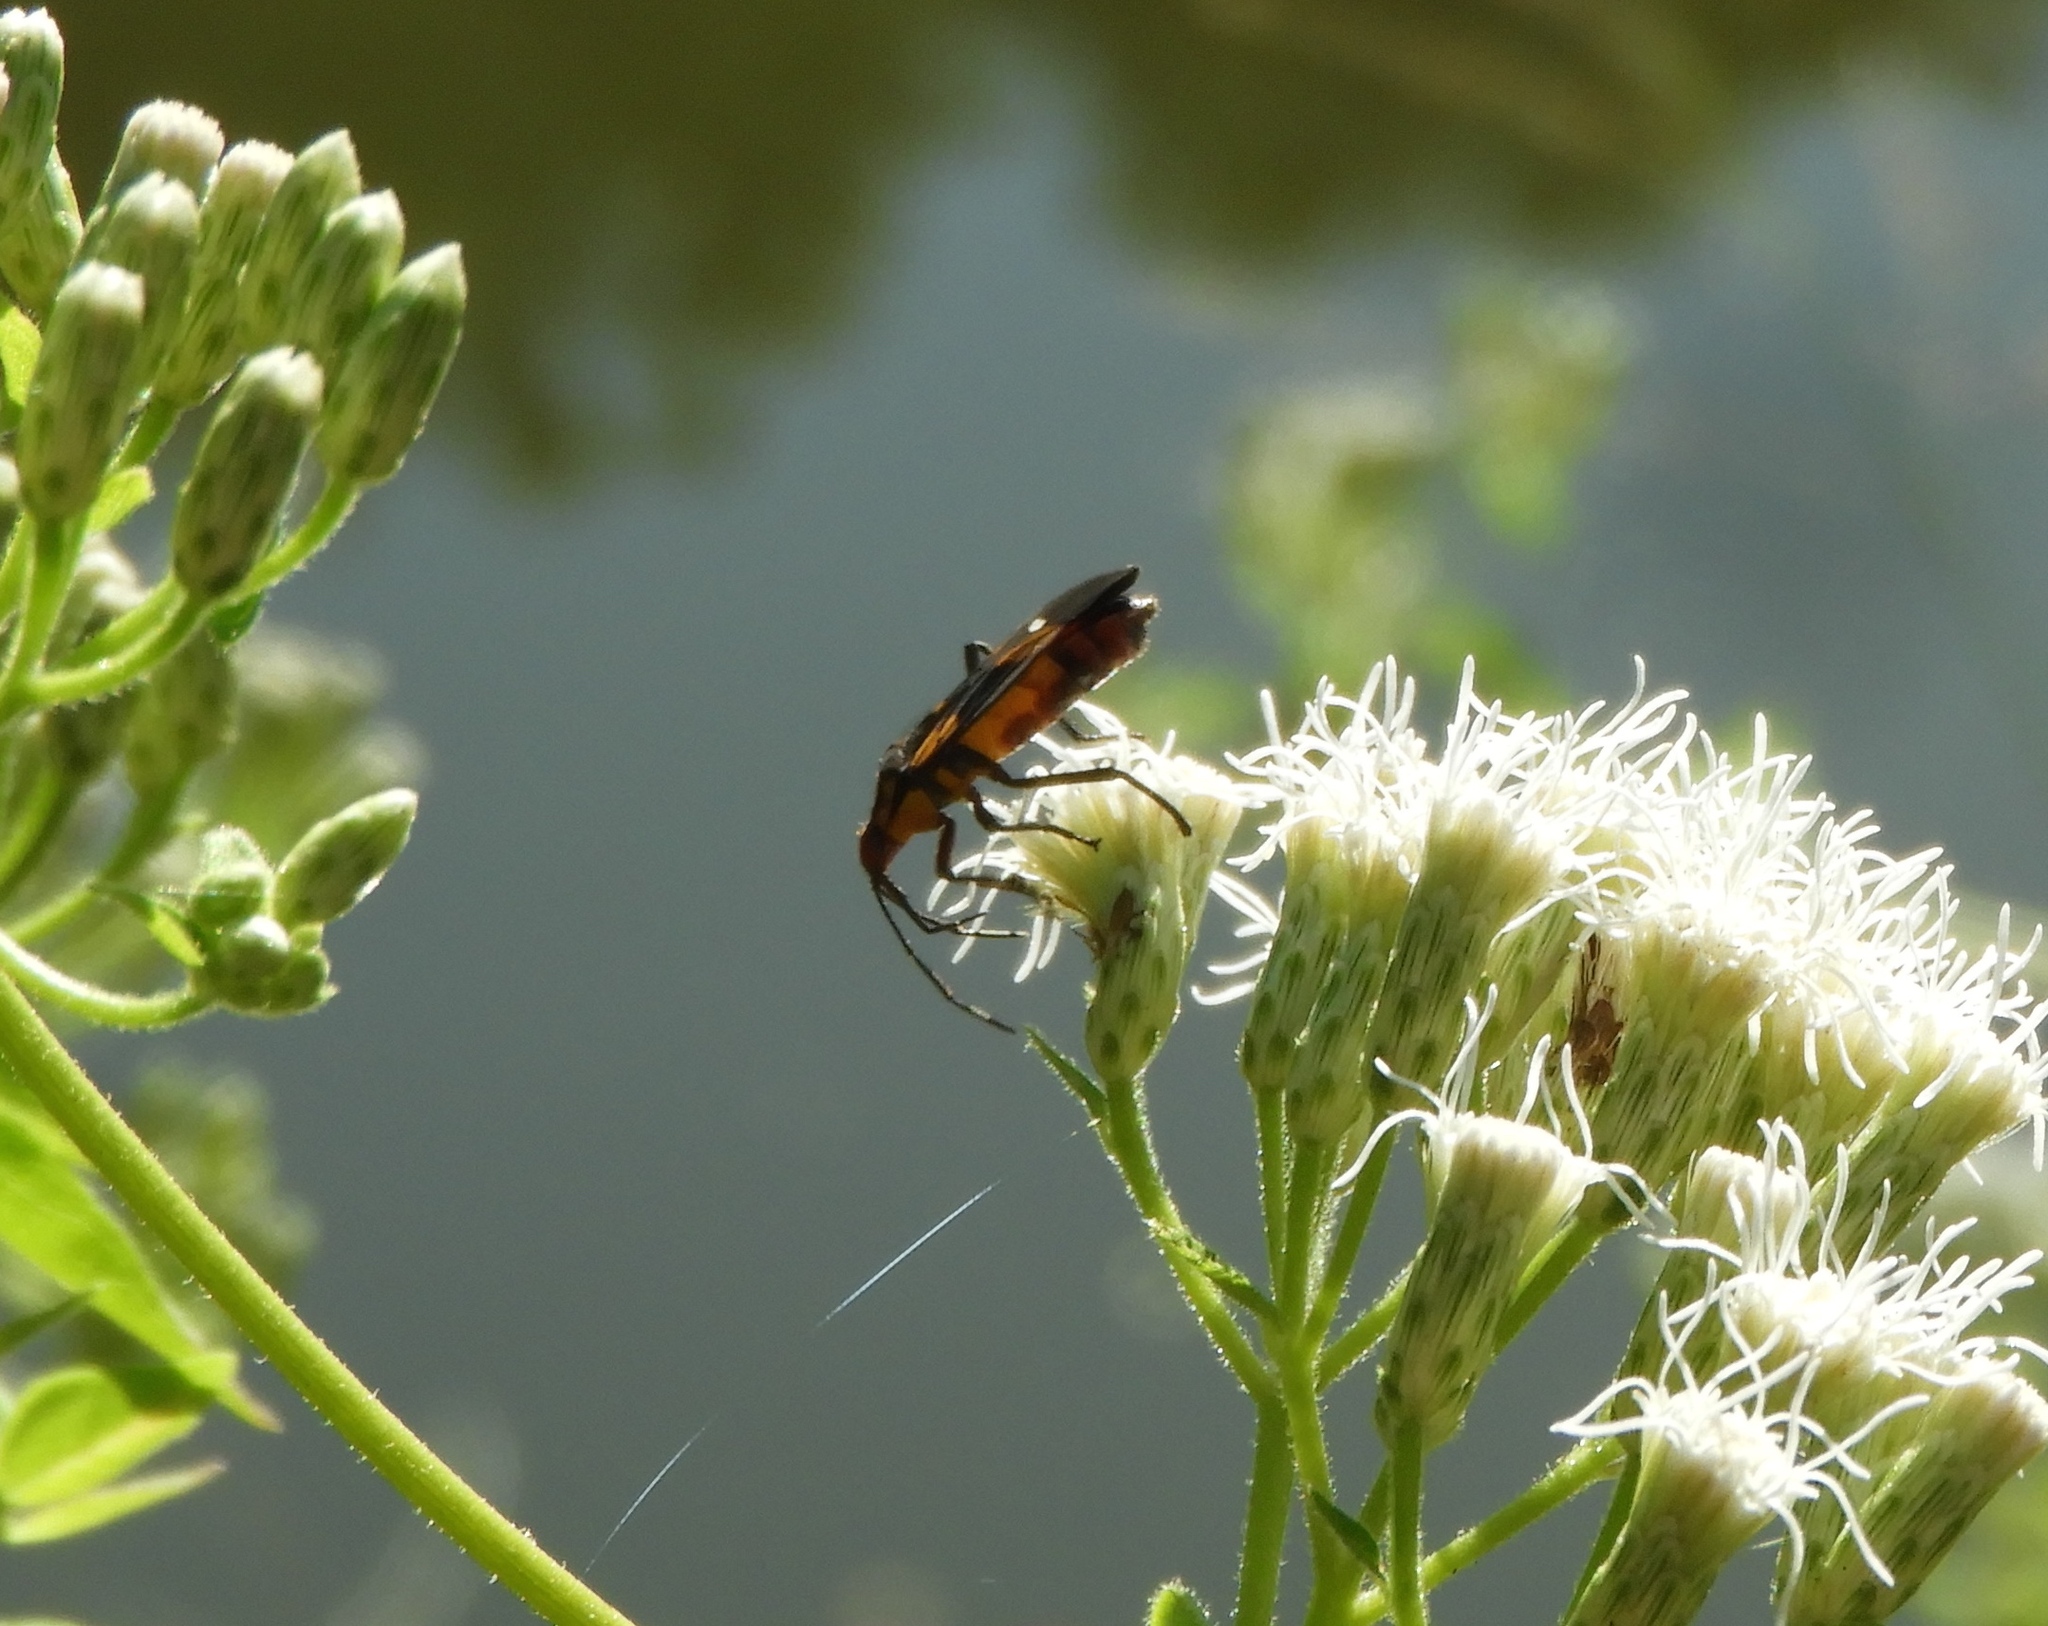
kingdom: Animalia
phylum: Arthropoda
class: Insecta
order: Hemiptera
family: Lygaeidae
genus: Oncopeltus
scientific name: Oncopeltus guttaloides
